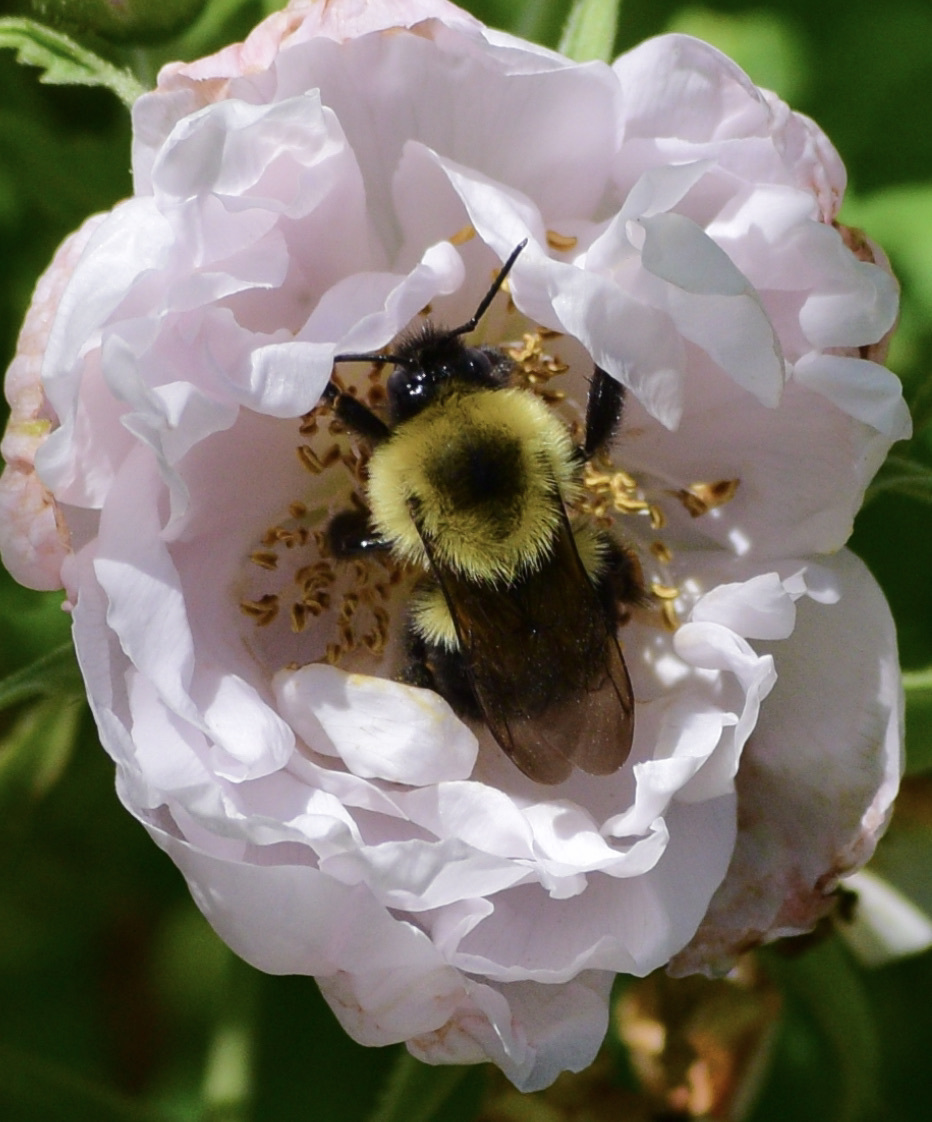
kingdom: Animalia
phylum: Arthropoda
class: Insecta
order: Hymenoptera
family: Apidae
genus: Bombus
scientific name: Bombus bimaculatus
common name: Two-spotted bumble bee
